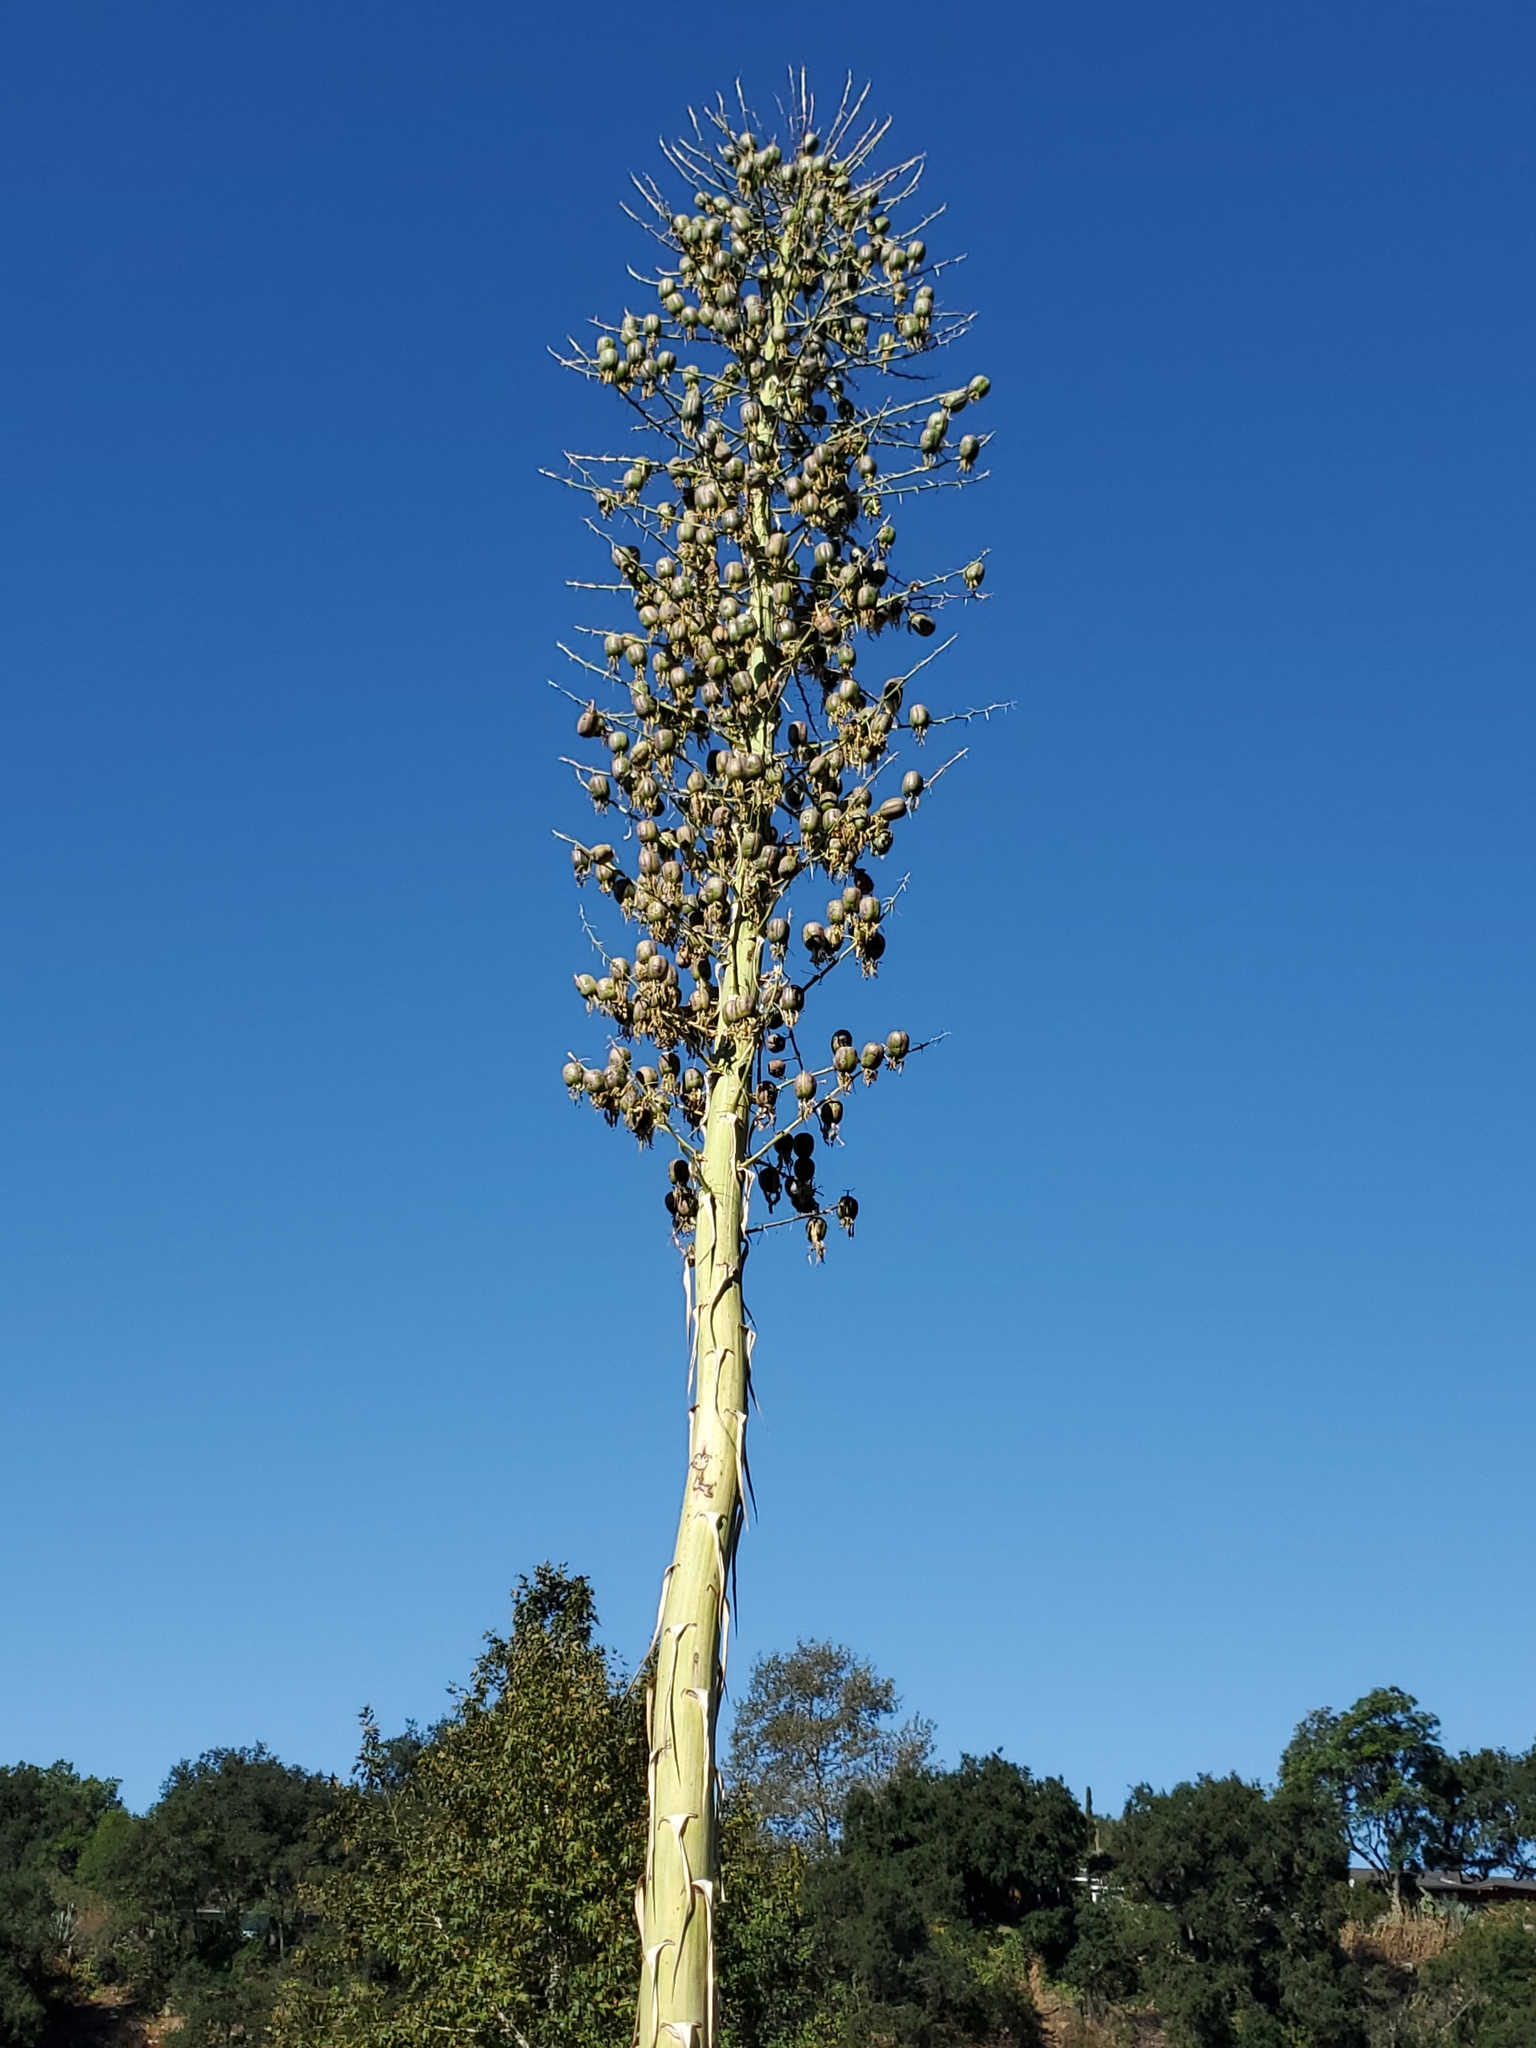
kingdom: Plantae
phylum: Tracheophyta
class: Liliopsida
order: Asparagales
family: Asparagaceae
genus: Hesperoyucca
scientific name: Hesperoyucca whipplei
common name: Our lord's-candle
